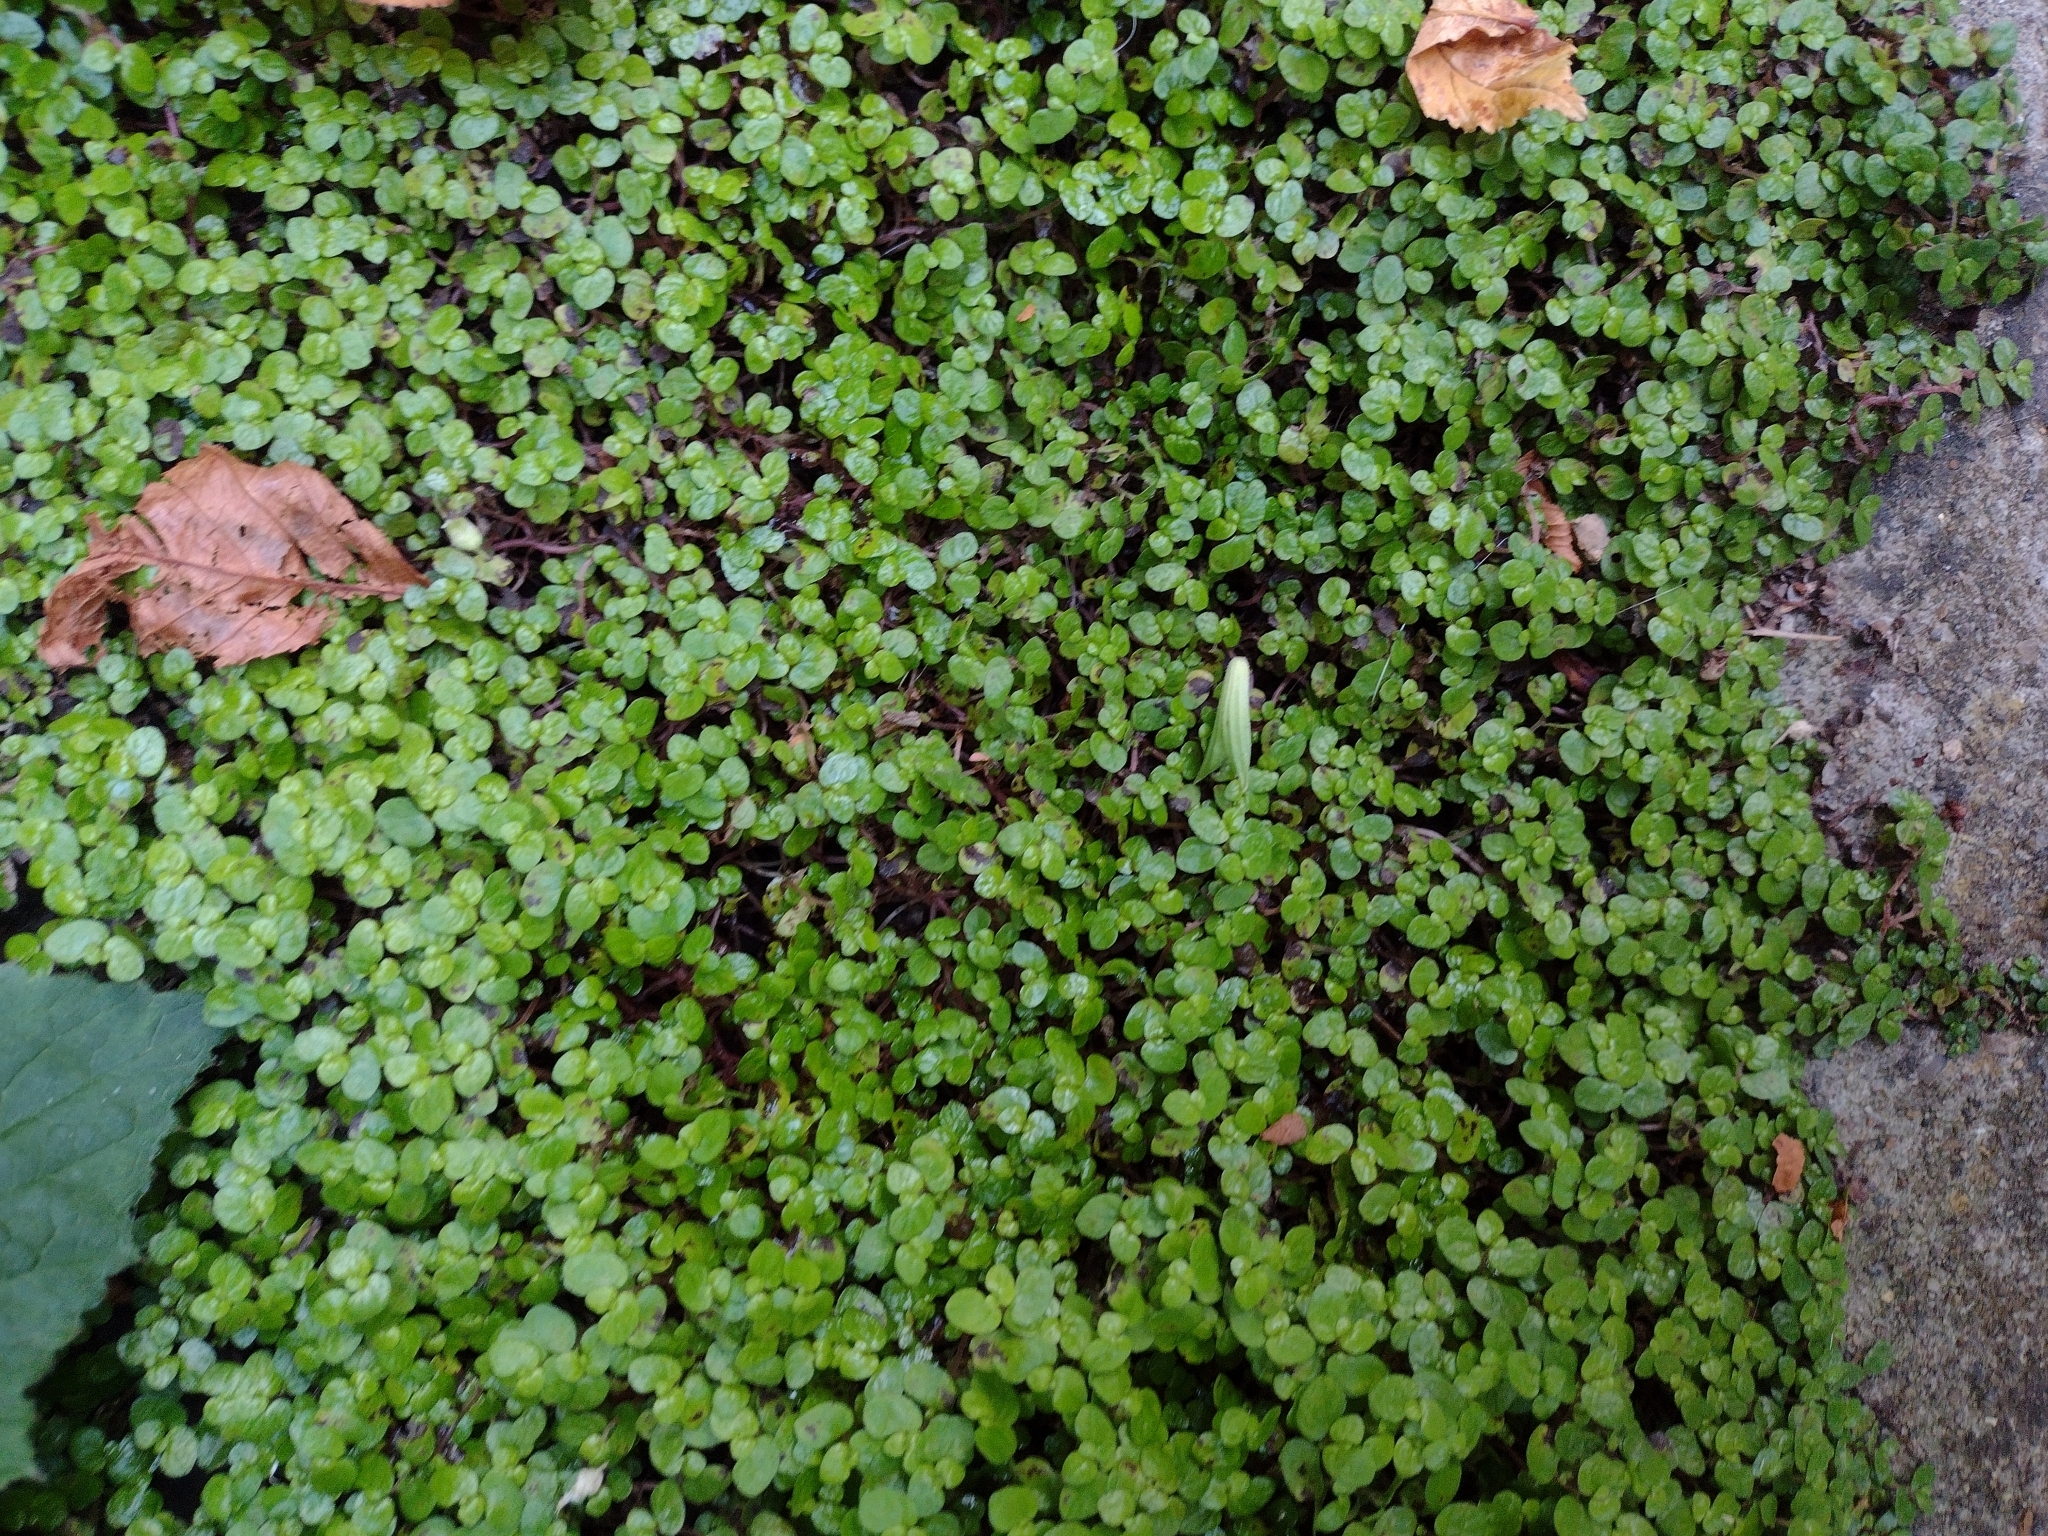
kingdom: Plantae
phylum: Tracheophyta
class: Magnoliopsida
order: Rosales
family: Urticaceae
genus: Soleirolia
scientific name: Soleirolia soleirolii
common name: Mind-your-own-business
